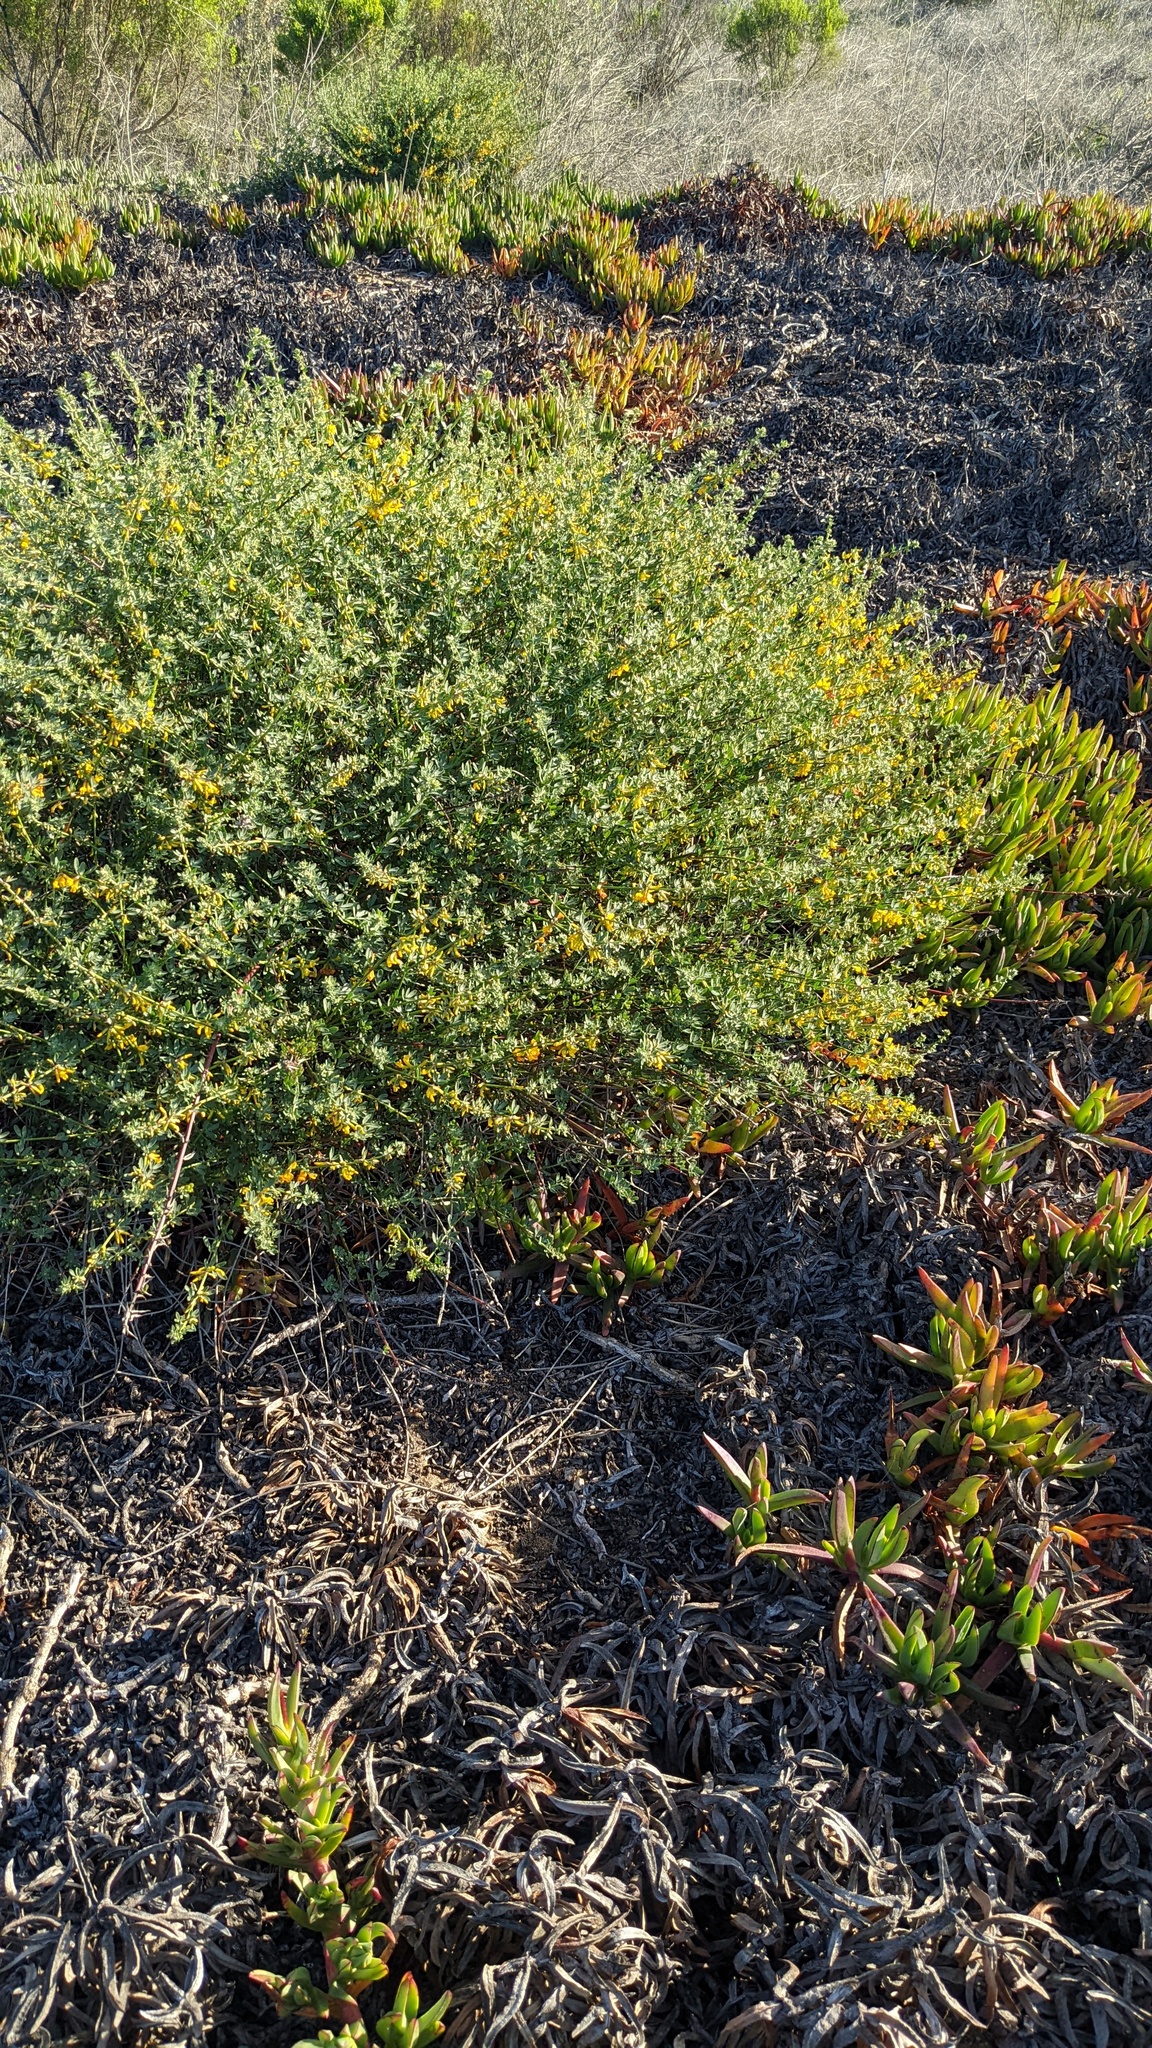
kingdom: Plantae
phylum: Tracheophyta
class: Magnoliopsida
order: Fabales
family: Fabaceae
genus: Acmispon
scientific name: Acmispon glaber
